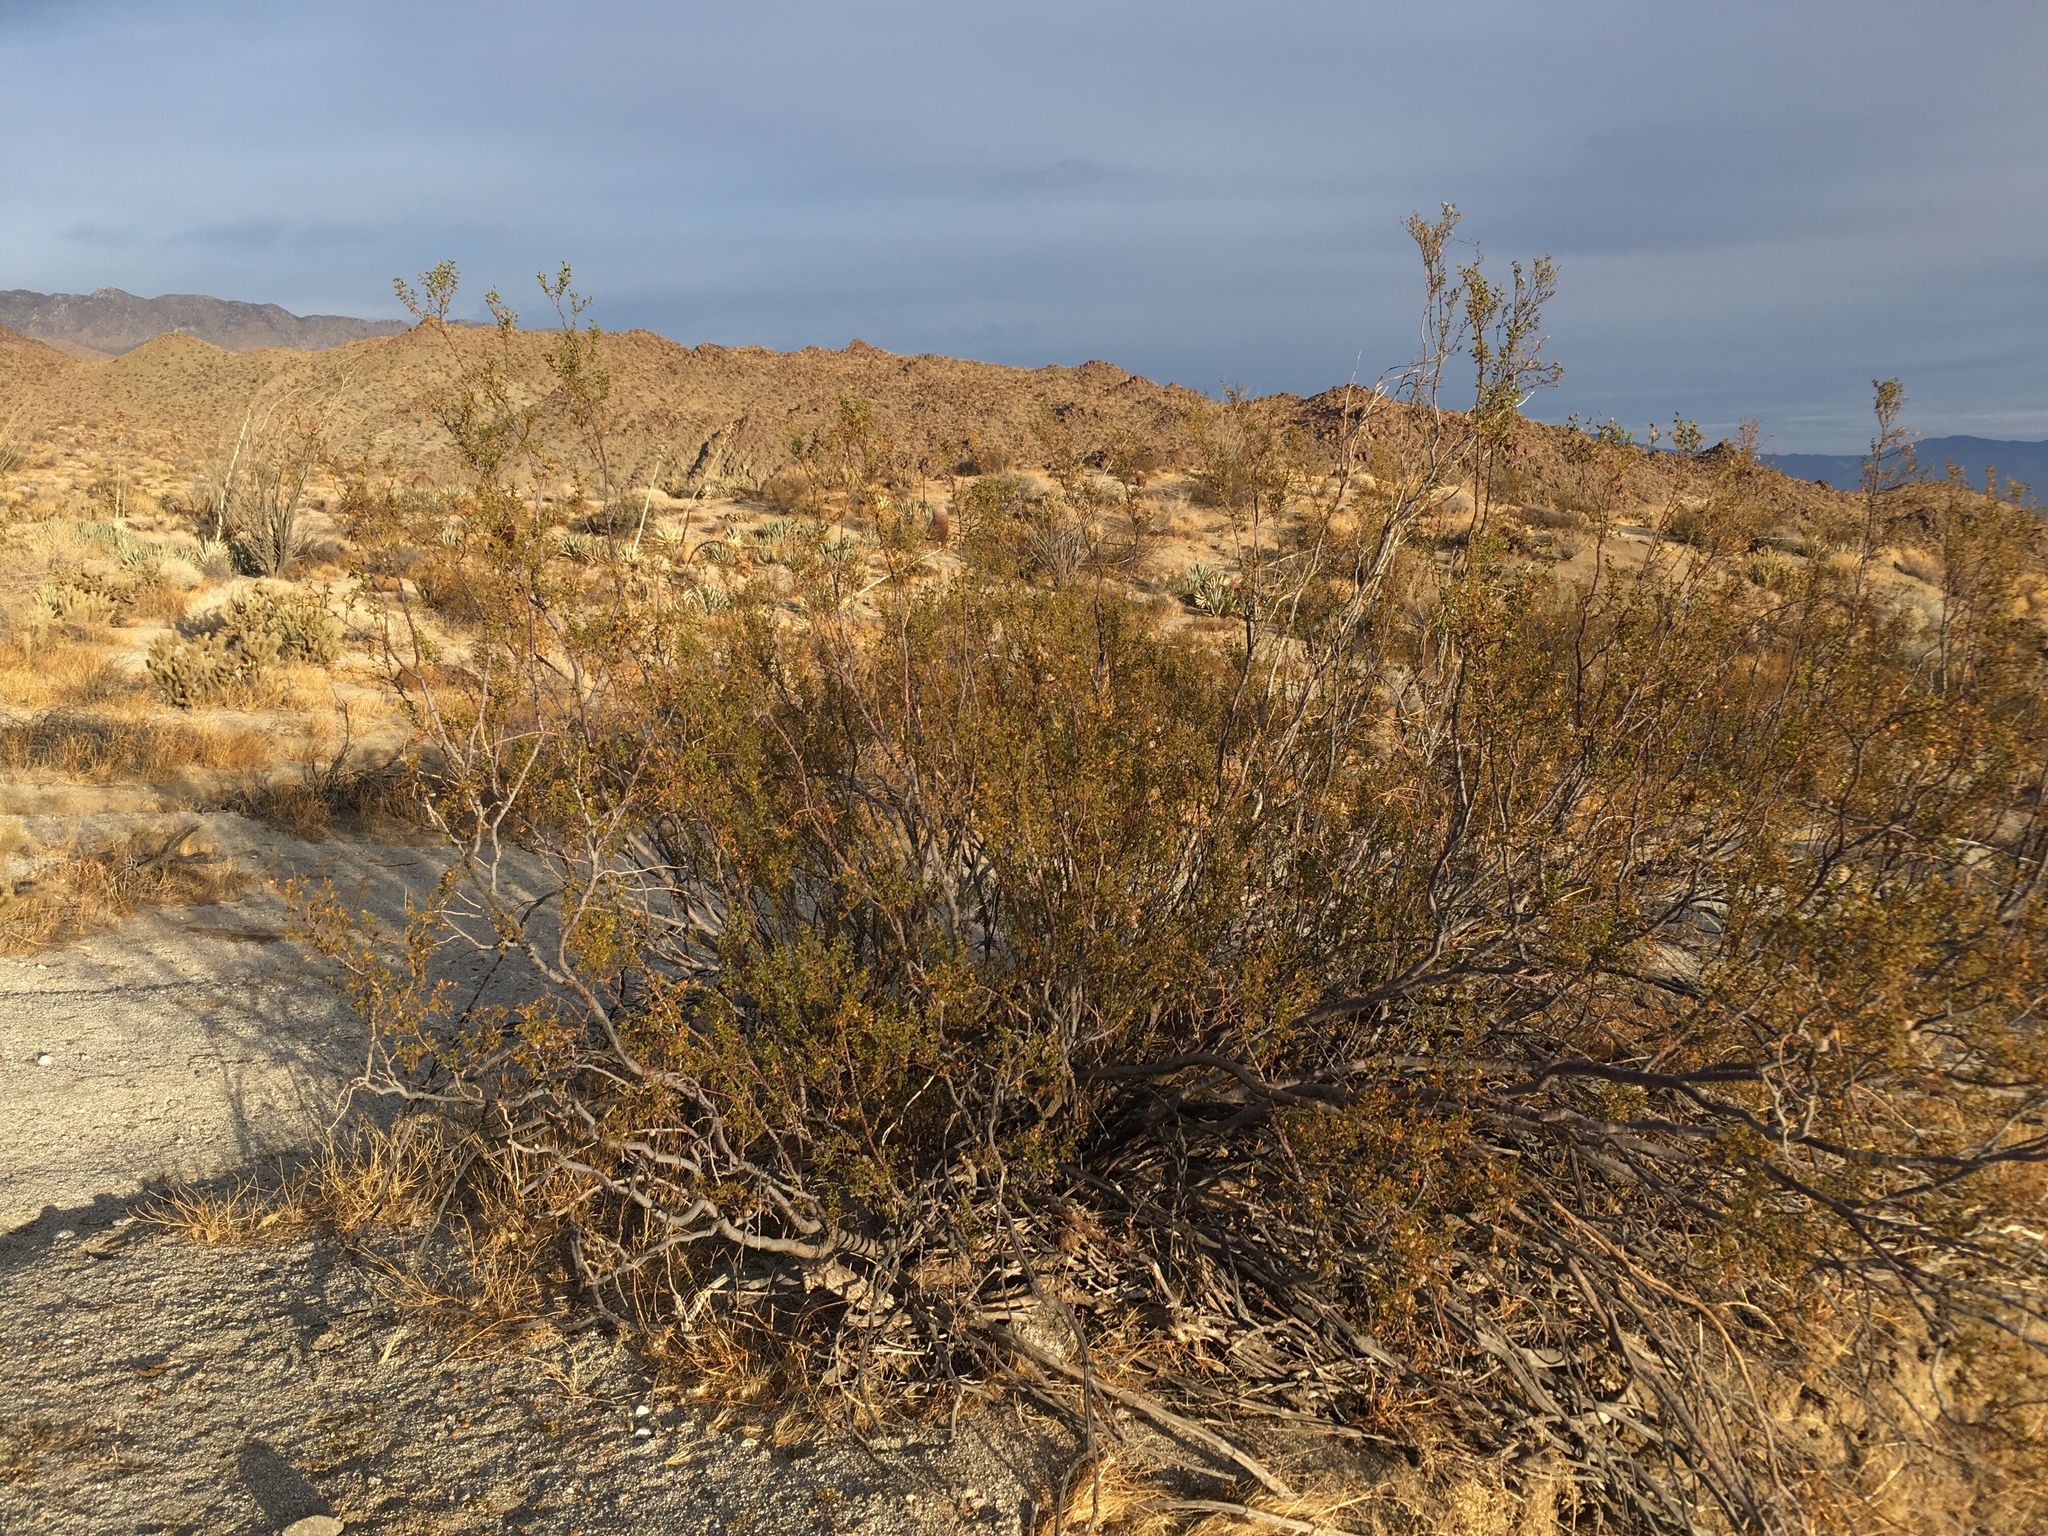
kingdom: Animalia
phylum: Arthropoda
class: Insecta
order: Diptera
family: Cecidomyiidae
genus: Asphondylia
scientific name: Asphondylia auripila
